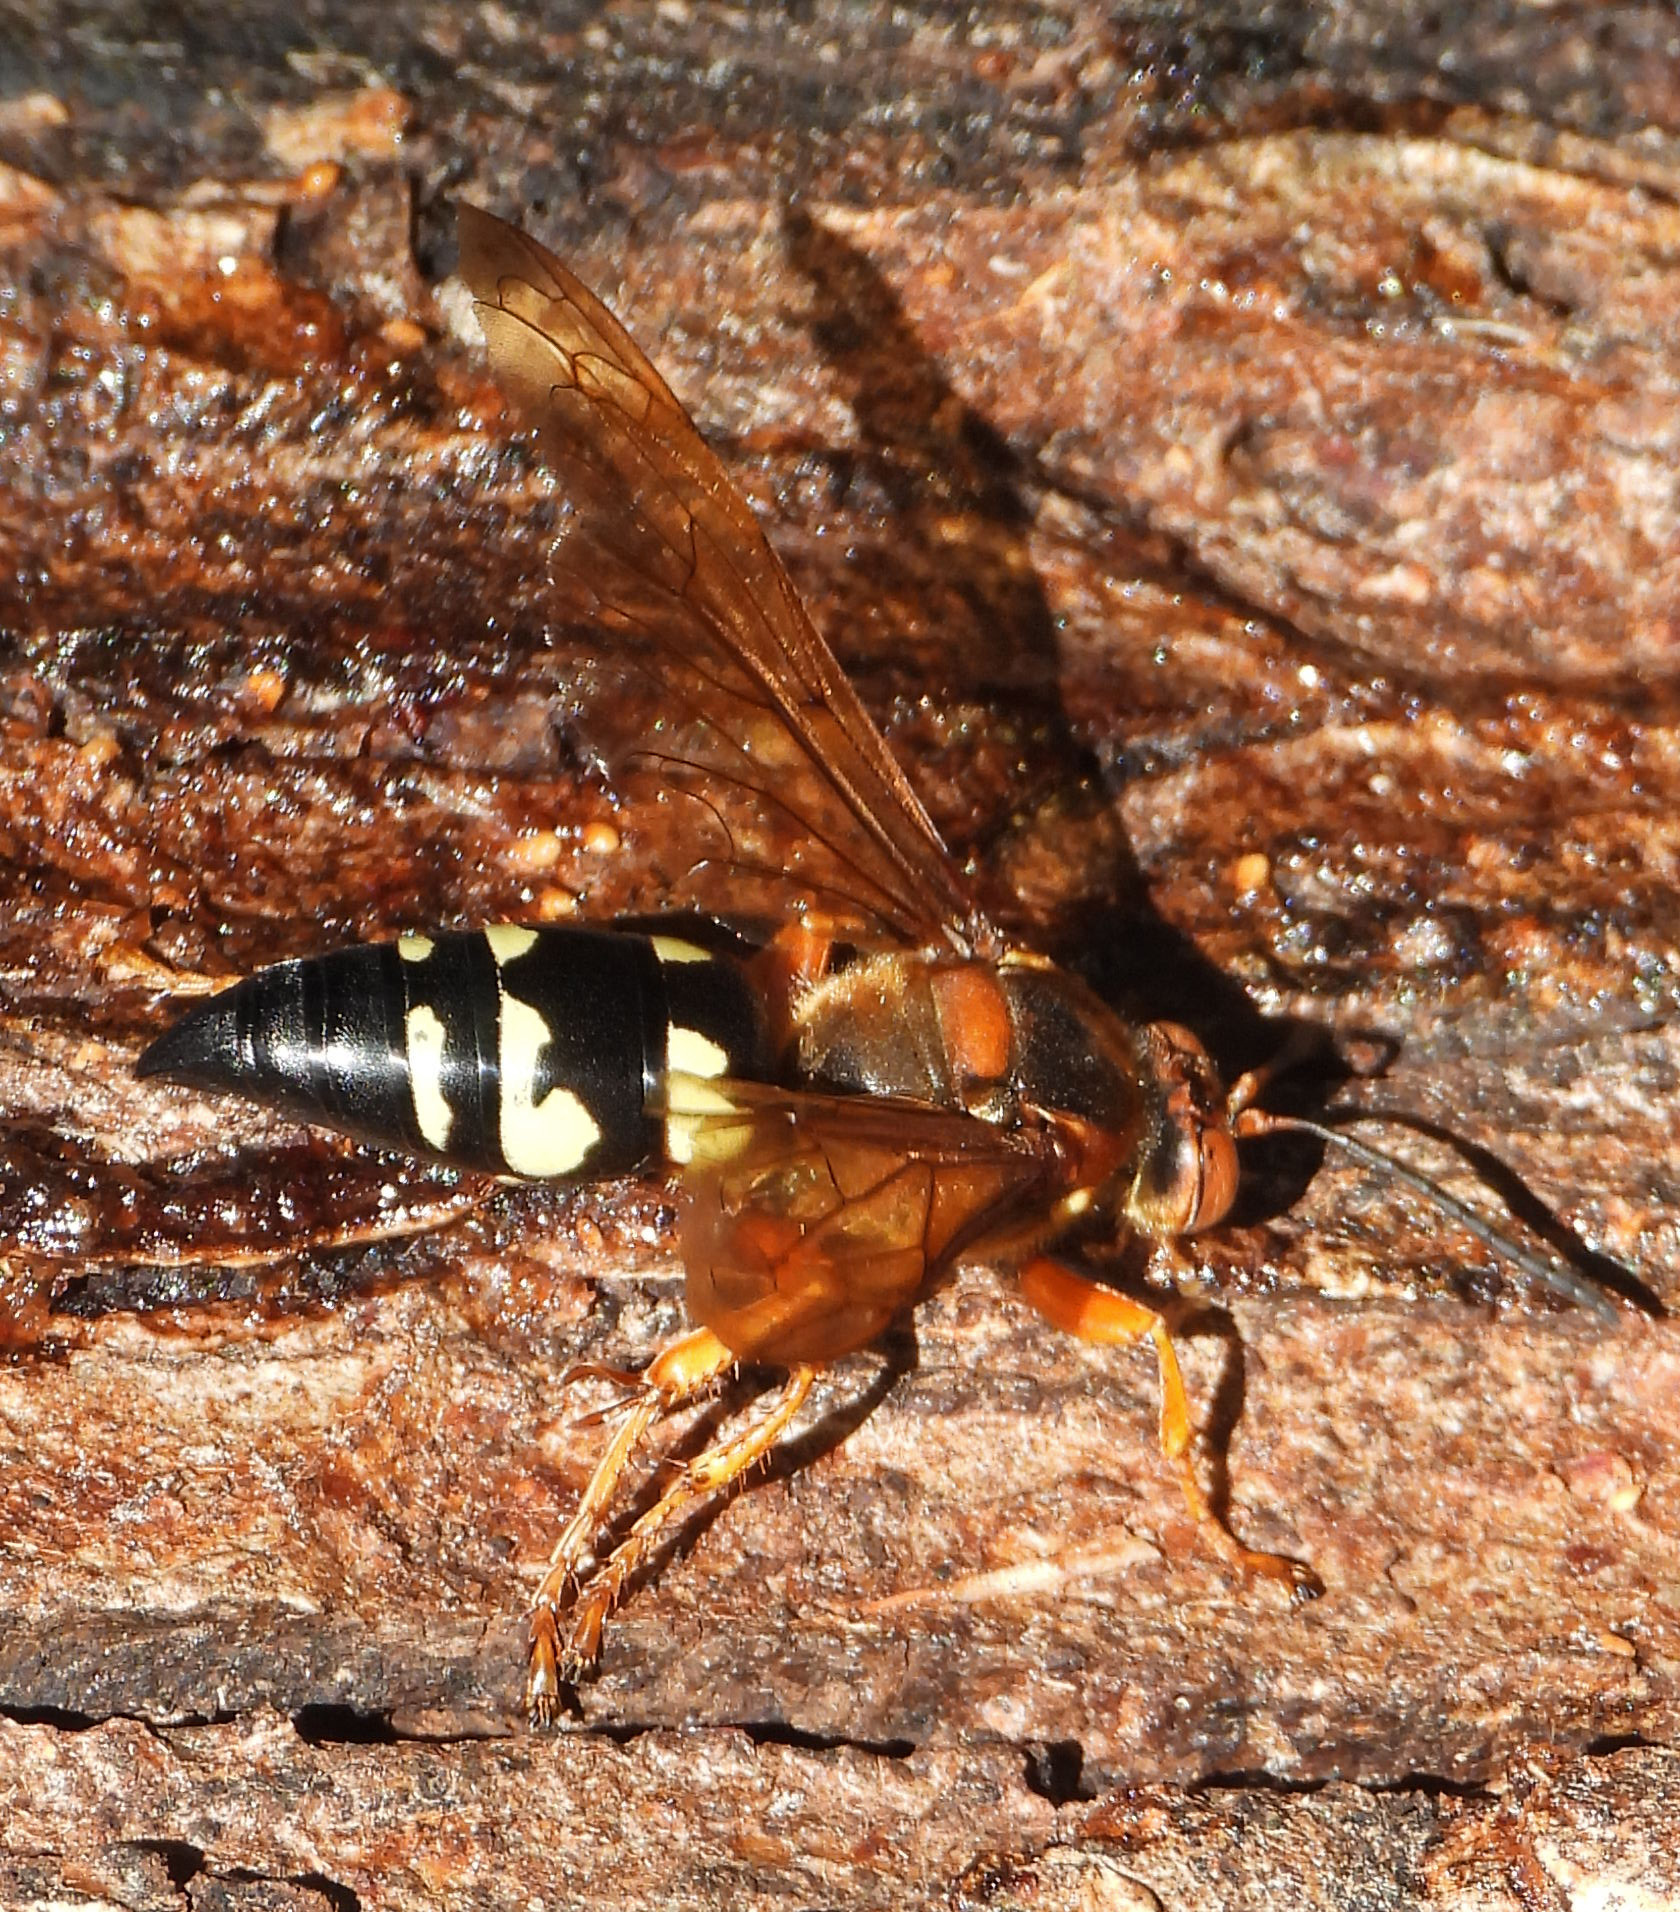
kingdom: Animalia
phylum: Arthropoda
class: Insecta
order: Hymenoptera
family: Crabronidae
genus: Sphecius
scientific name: Sphecius speciosus
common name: Cicada killer
